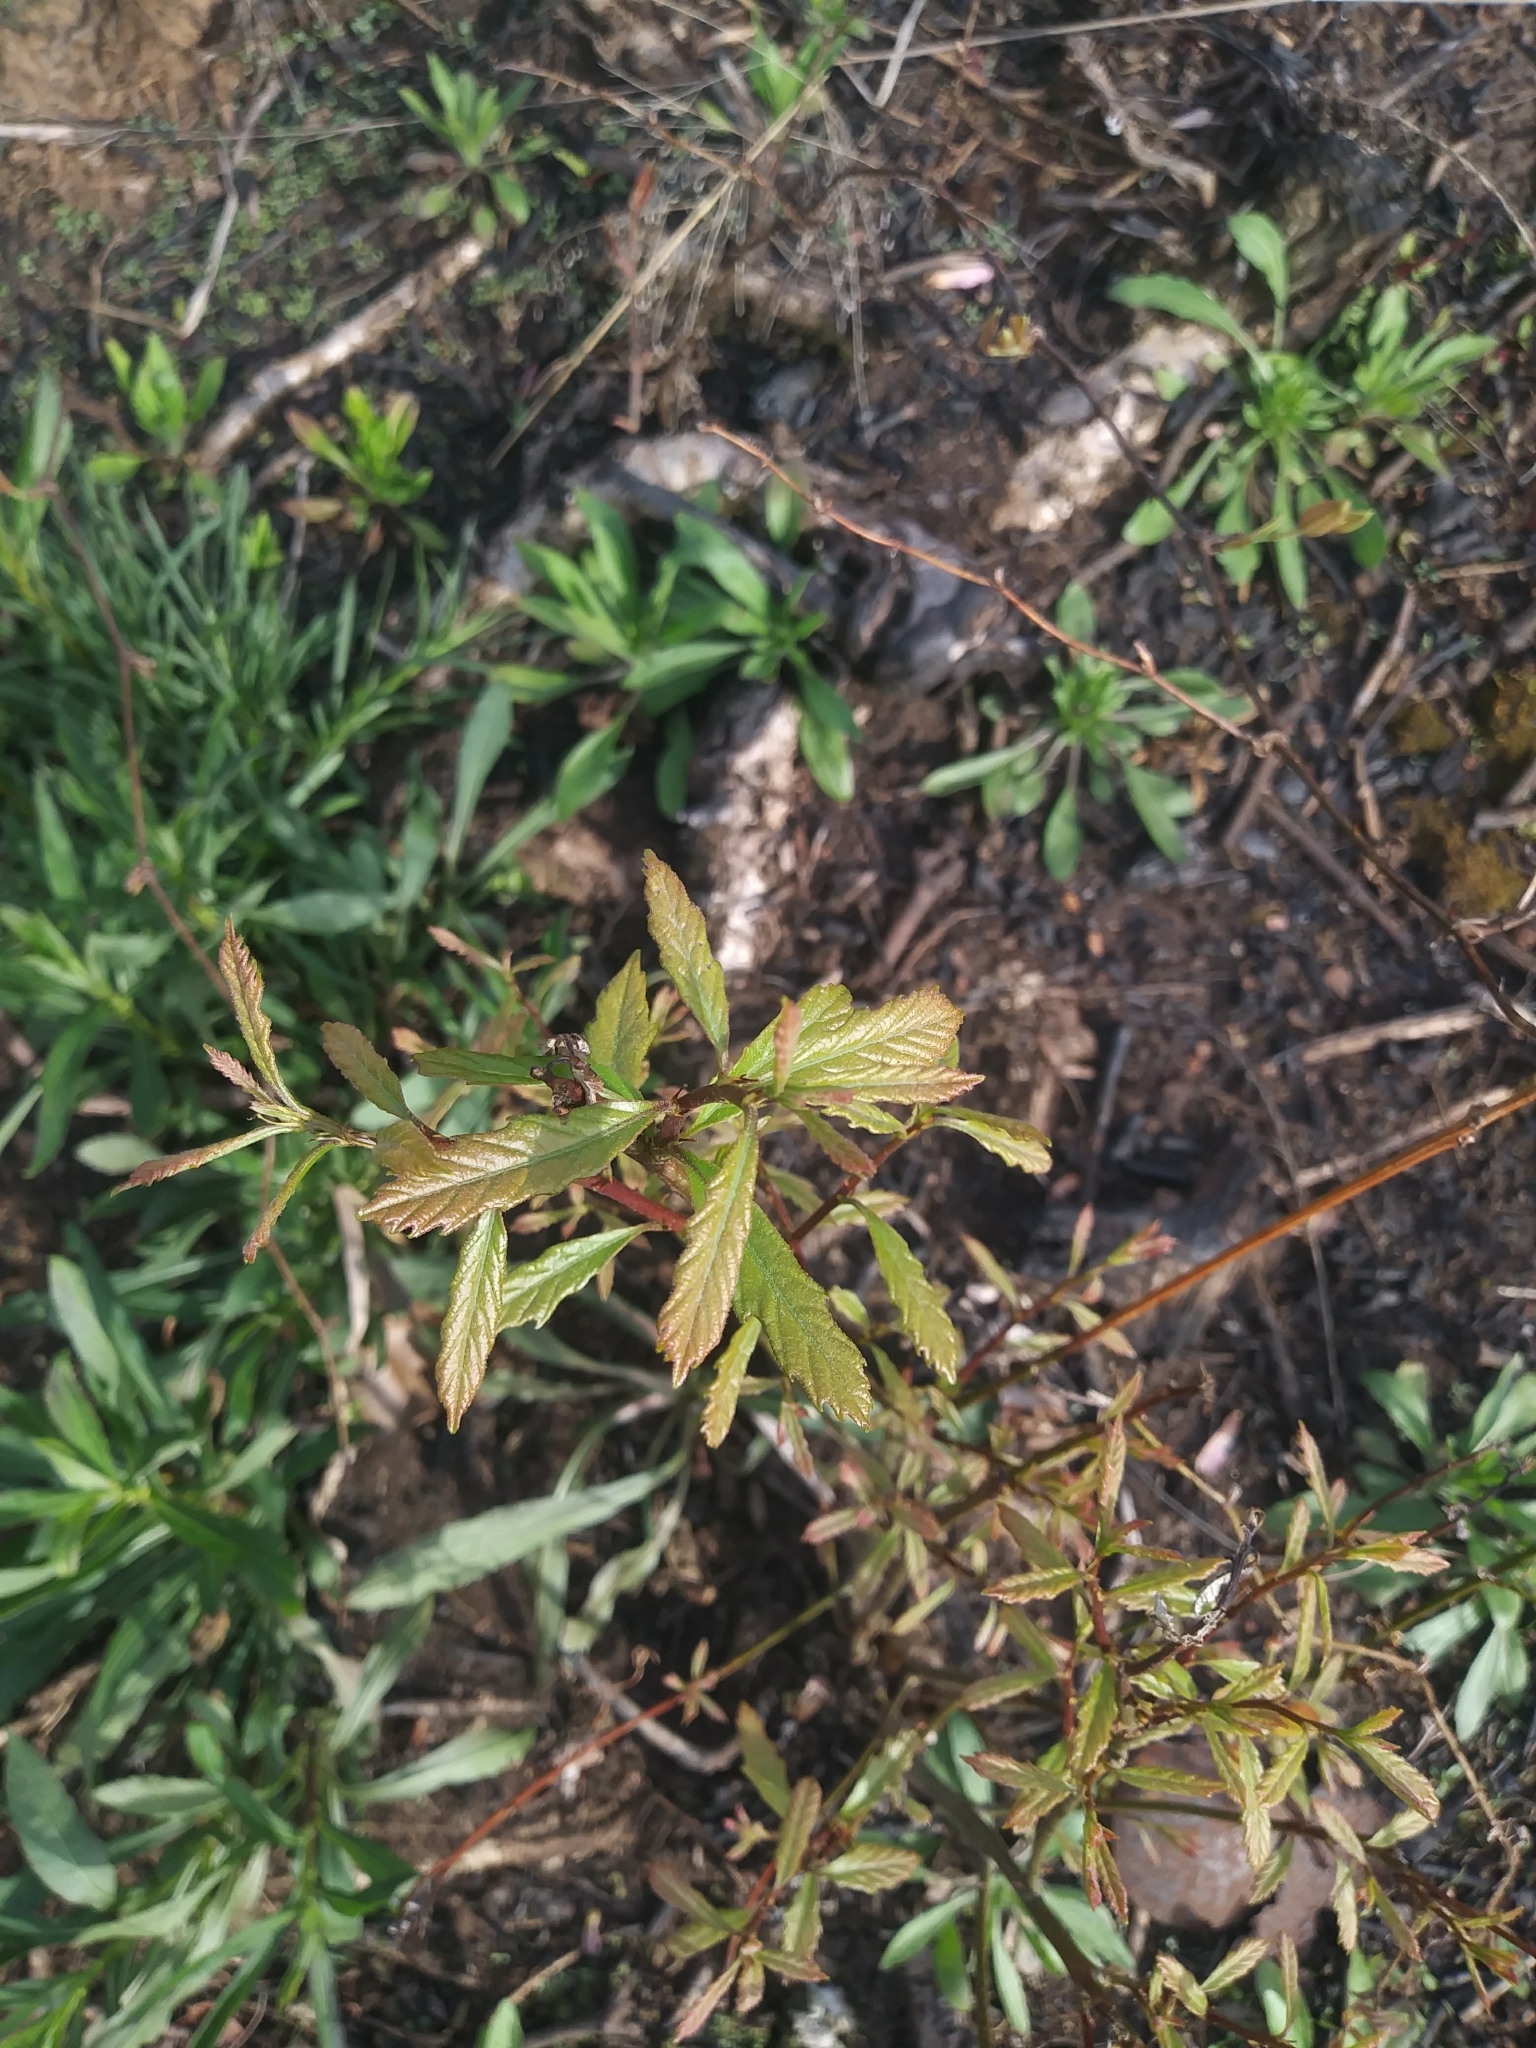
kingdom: Plantae
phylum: Tracheophyta
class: Magnoliopsida
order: Fagales
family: Fagaceae
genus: Quercus
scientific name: Quercus prinoides
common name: Dwarf chinkapin oak
